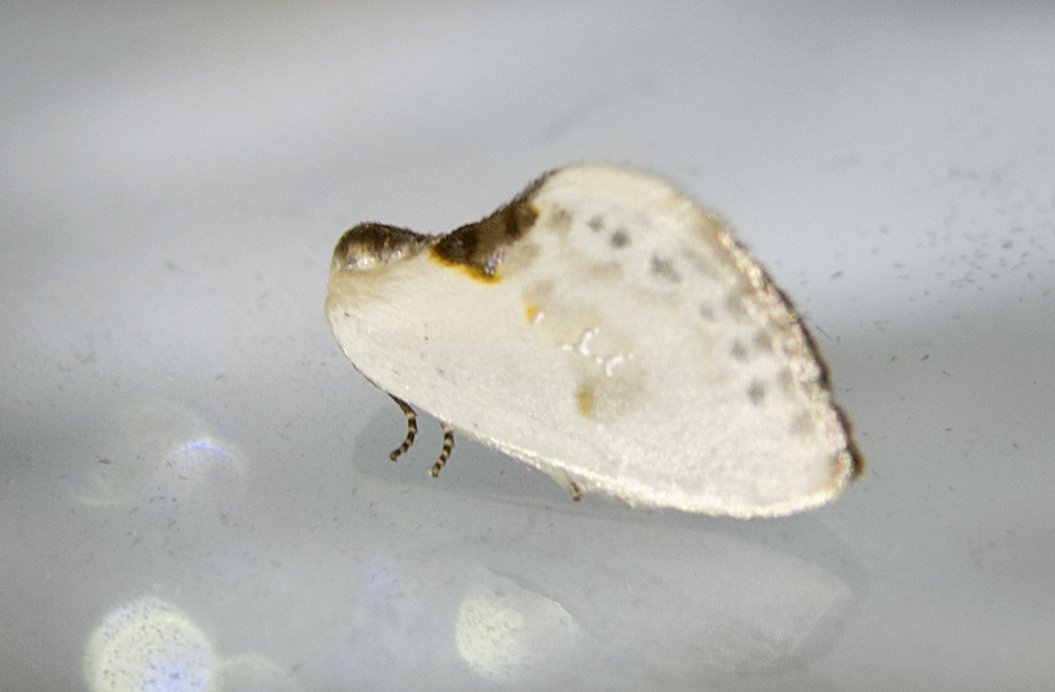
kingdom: Animalia
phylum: Arthropoda
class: Insecta
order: Lepidoptera
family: Drepanidae
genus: Cilix
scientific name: Cilix glaucata
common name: Chinese character
